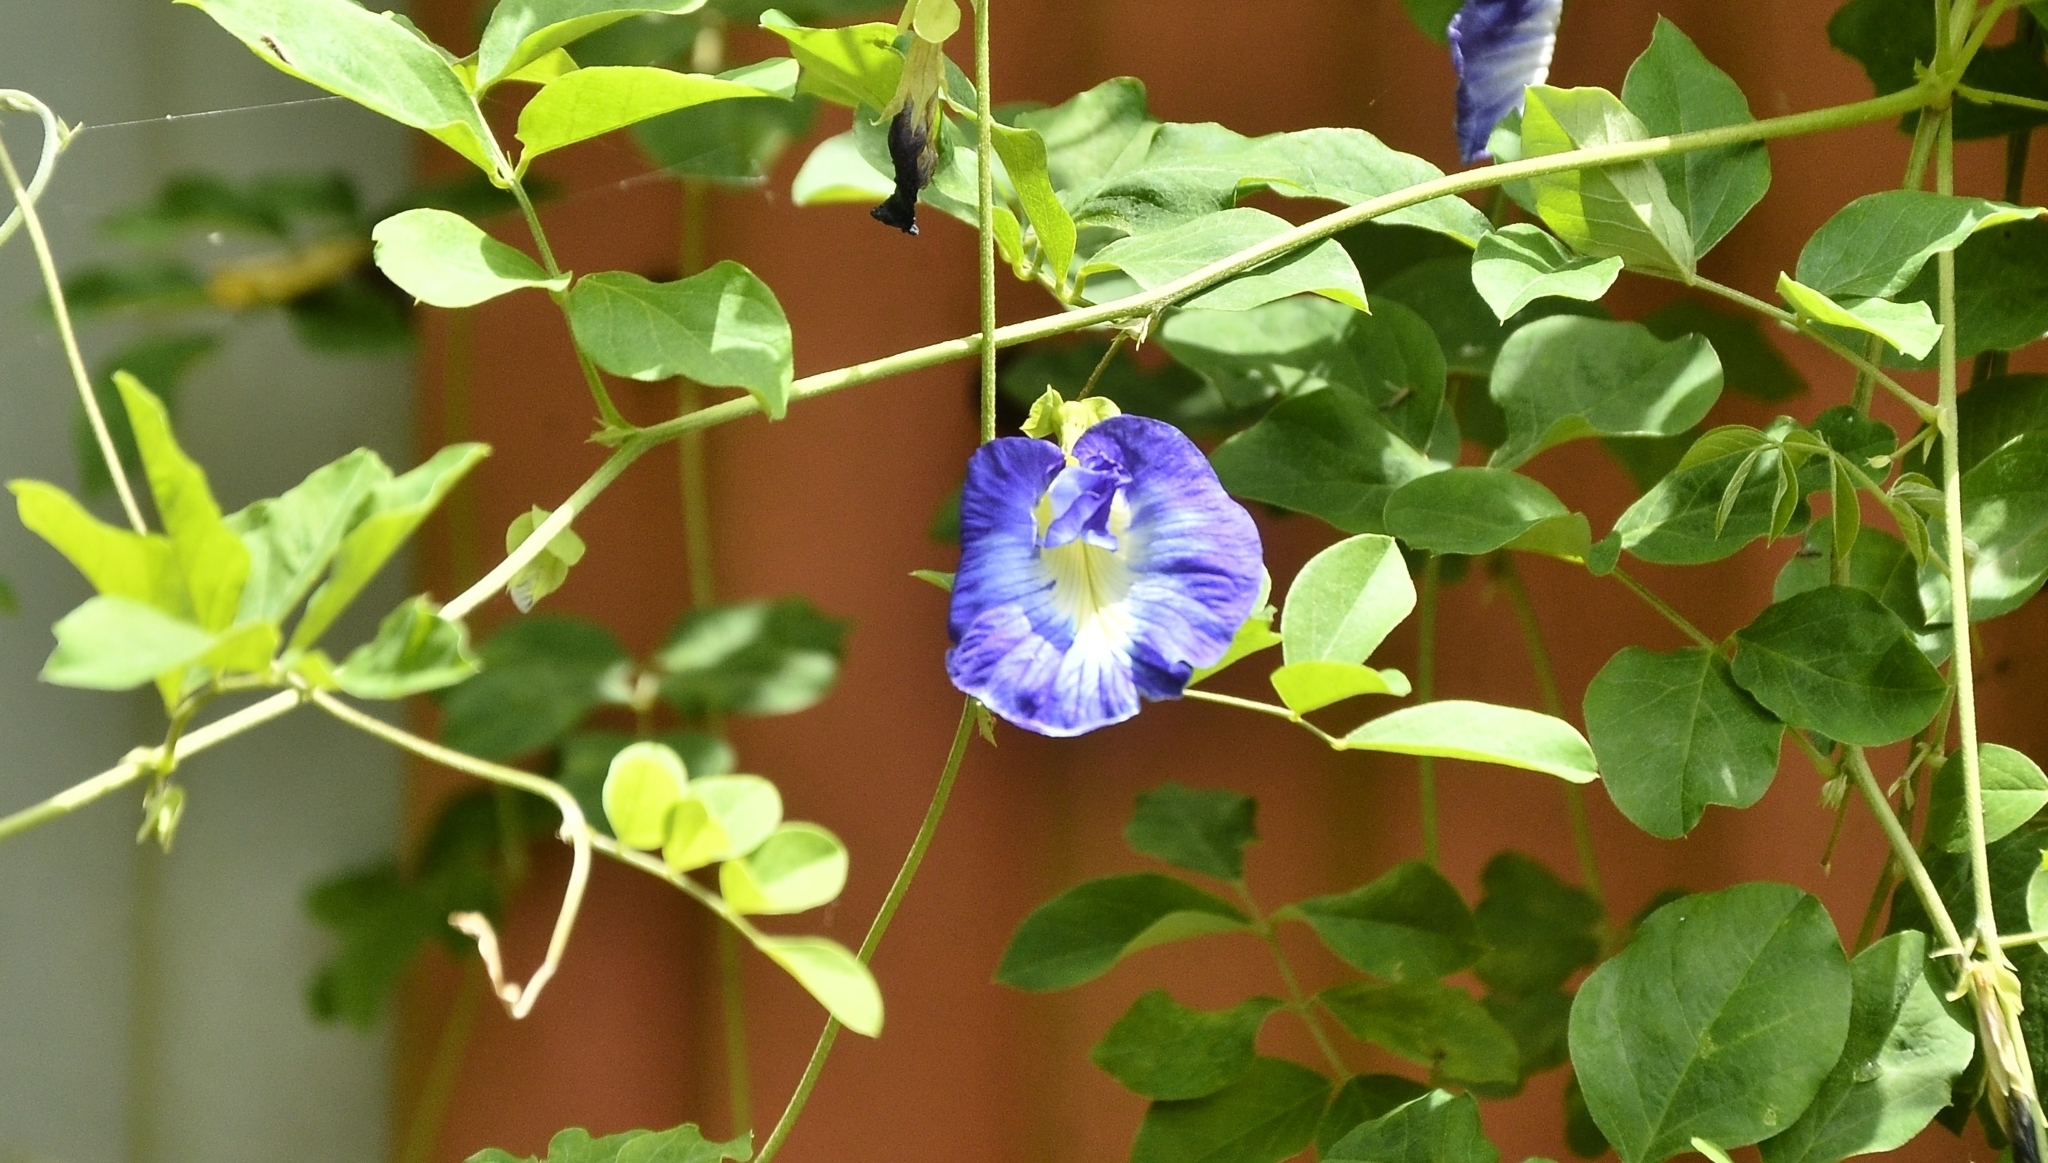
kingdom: Plantae
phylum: Tracheophyta
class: Magnoliopsida
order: Fabales
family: Fabaceae
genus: Clitoria
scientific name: Clitoria ternatea
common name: Asian pigeonwings
